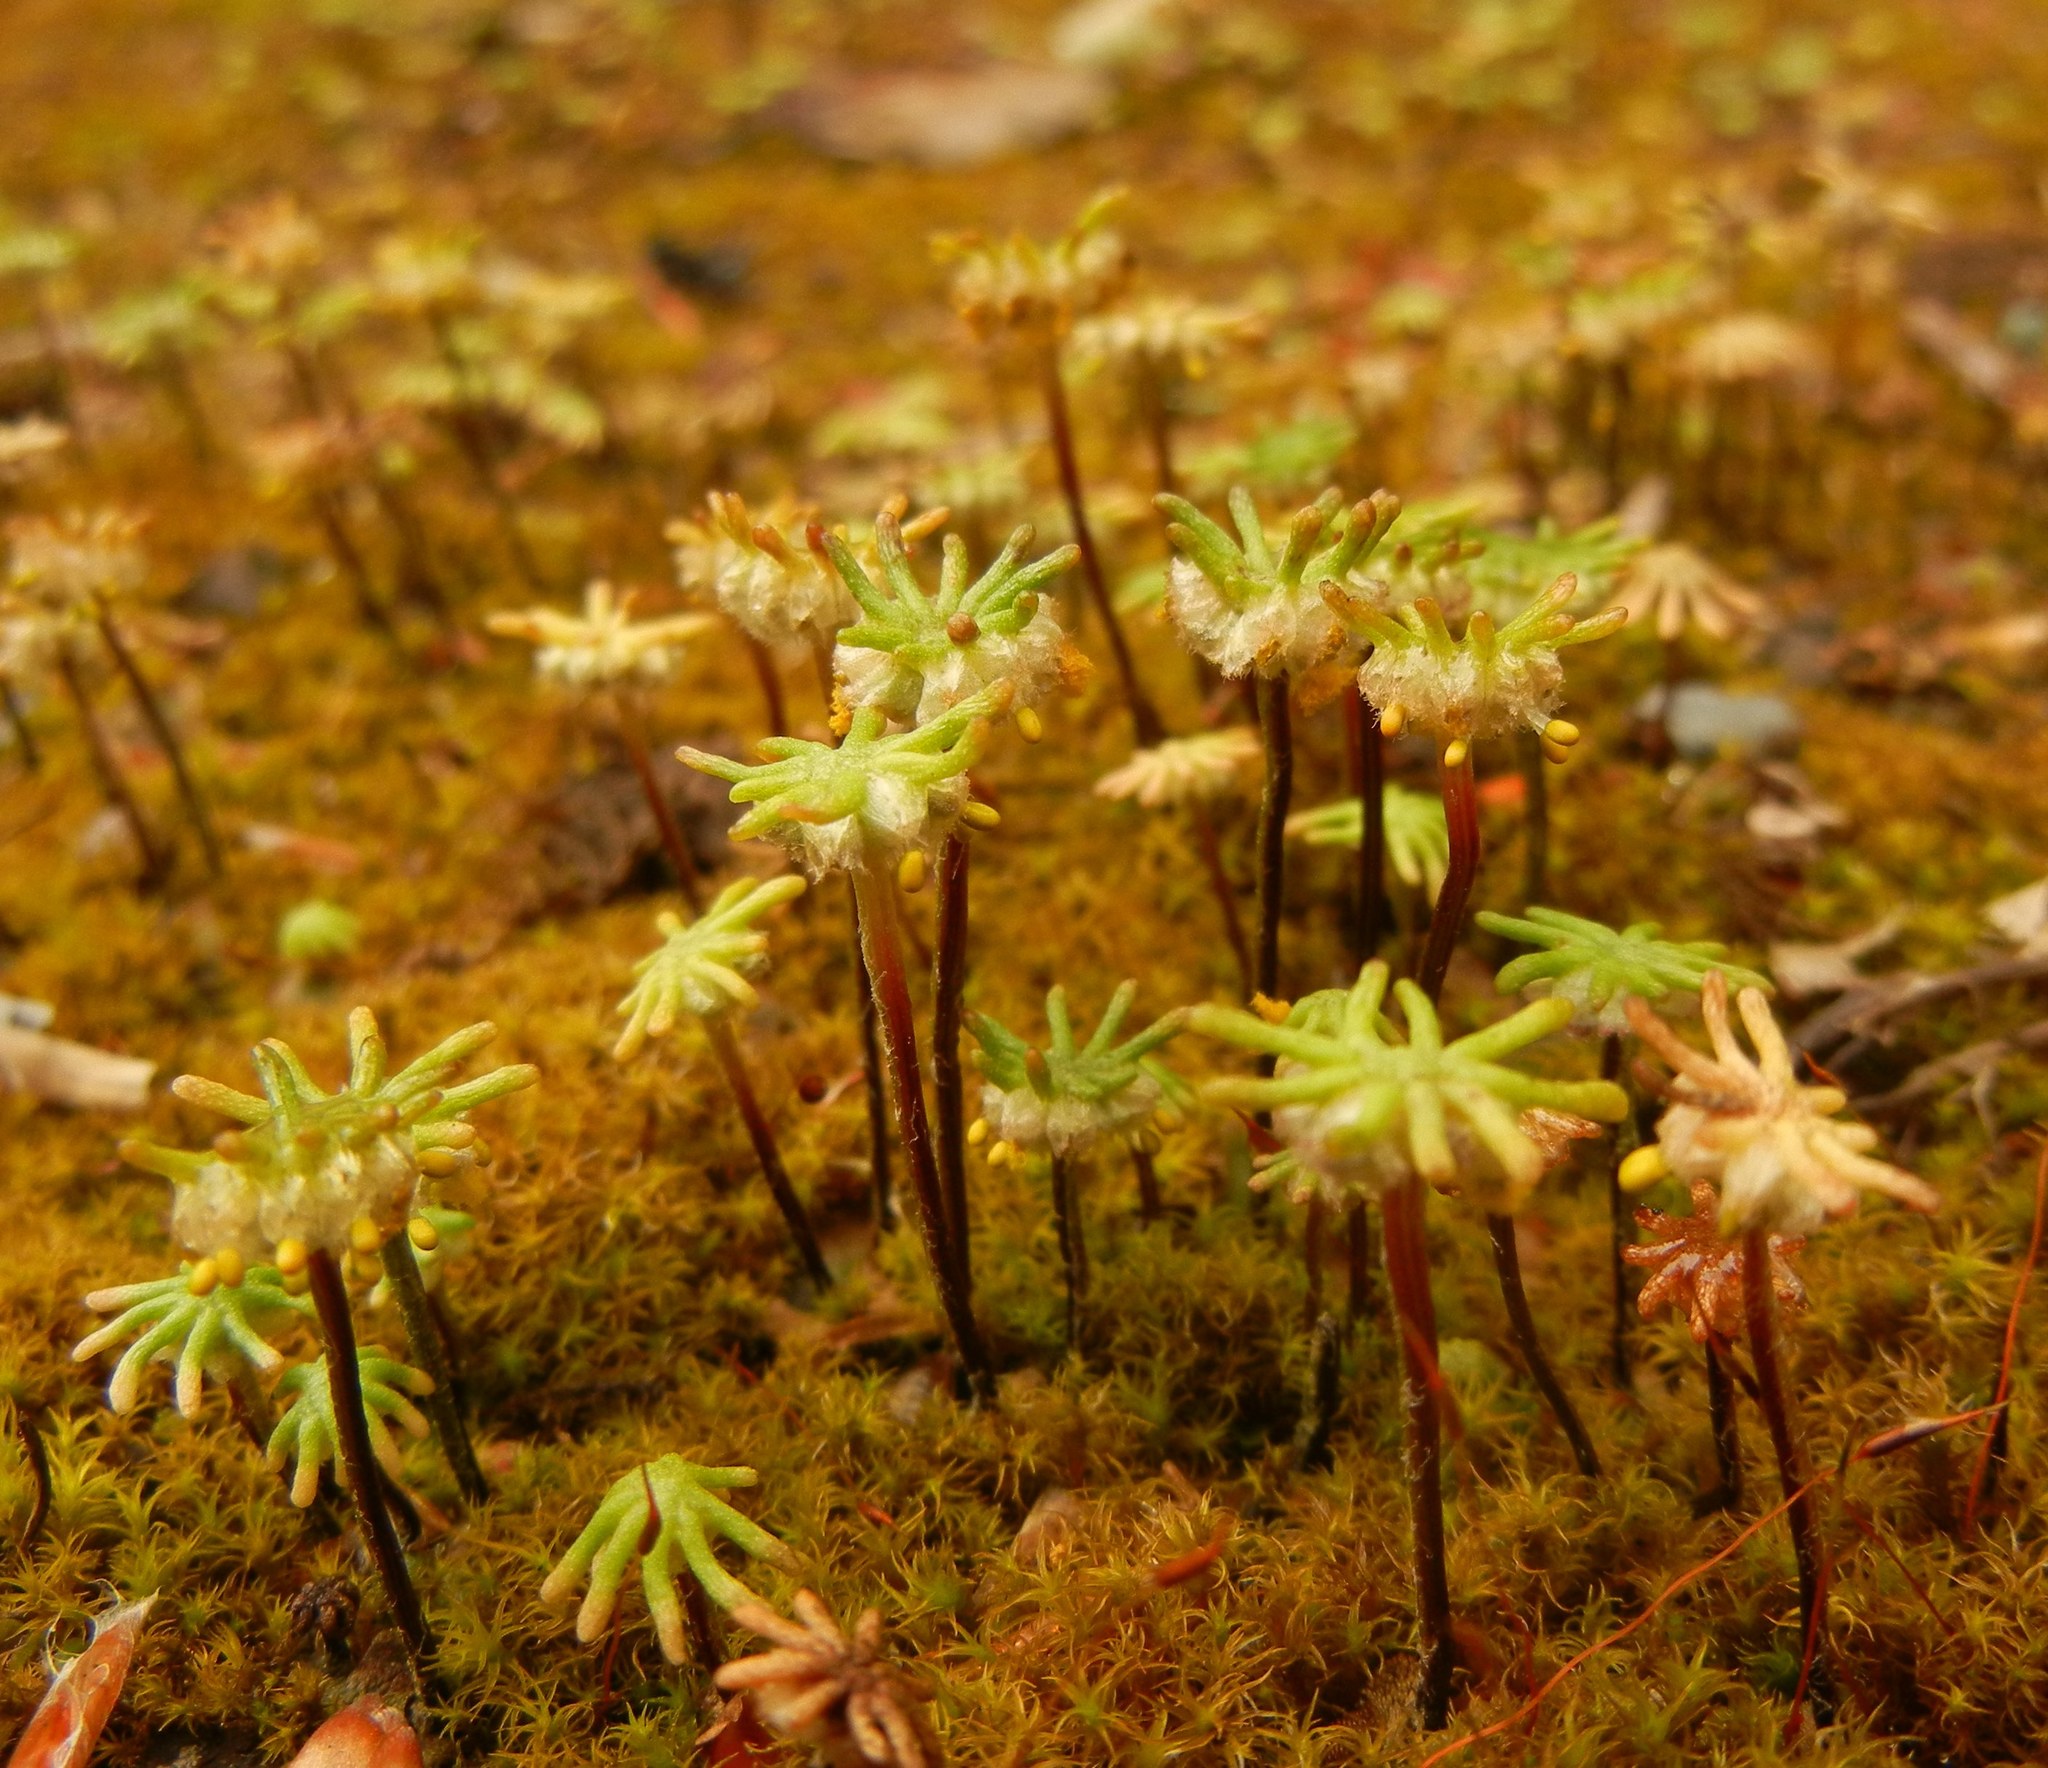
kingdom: Plantae
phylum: Marchantiophyta
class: Marchantiopsida
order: Marchantiales
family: Marchantiaceae
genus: Marchantia
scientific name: Marchantia polymorpha
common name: Common liverwort
